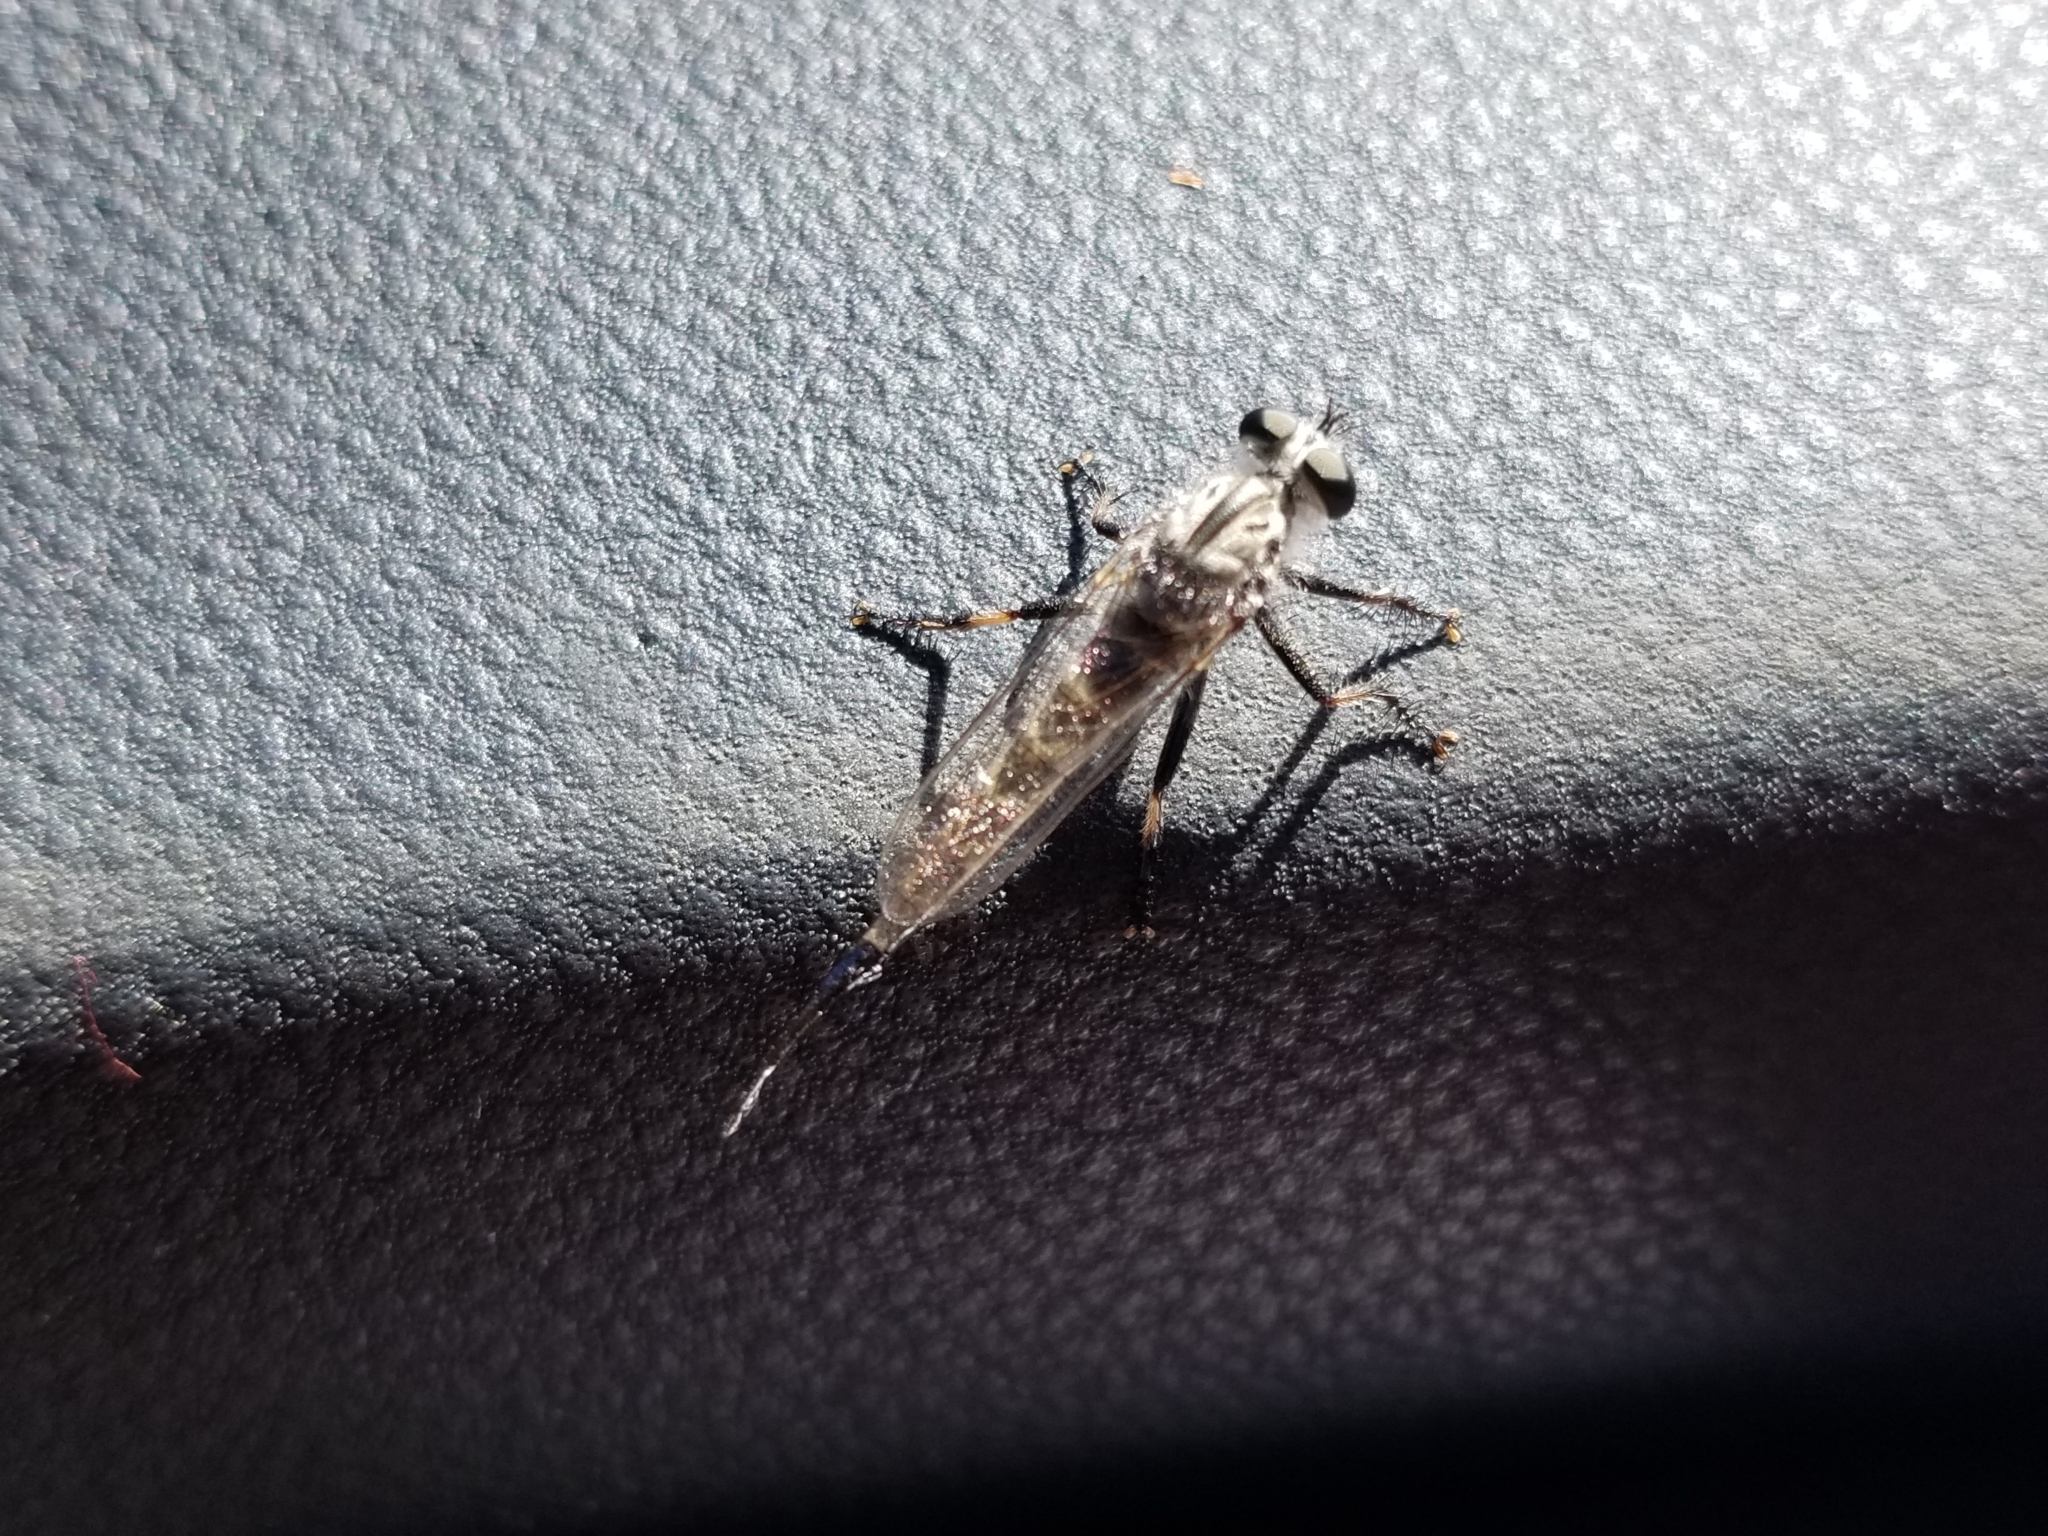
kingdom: Animalia
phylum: Arthropoda
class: Insecta
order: Diptera
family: Asilidae
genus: Efferia
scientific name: Efferia
